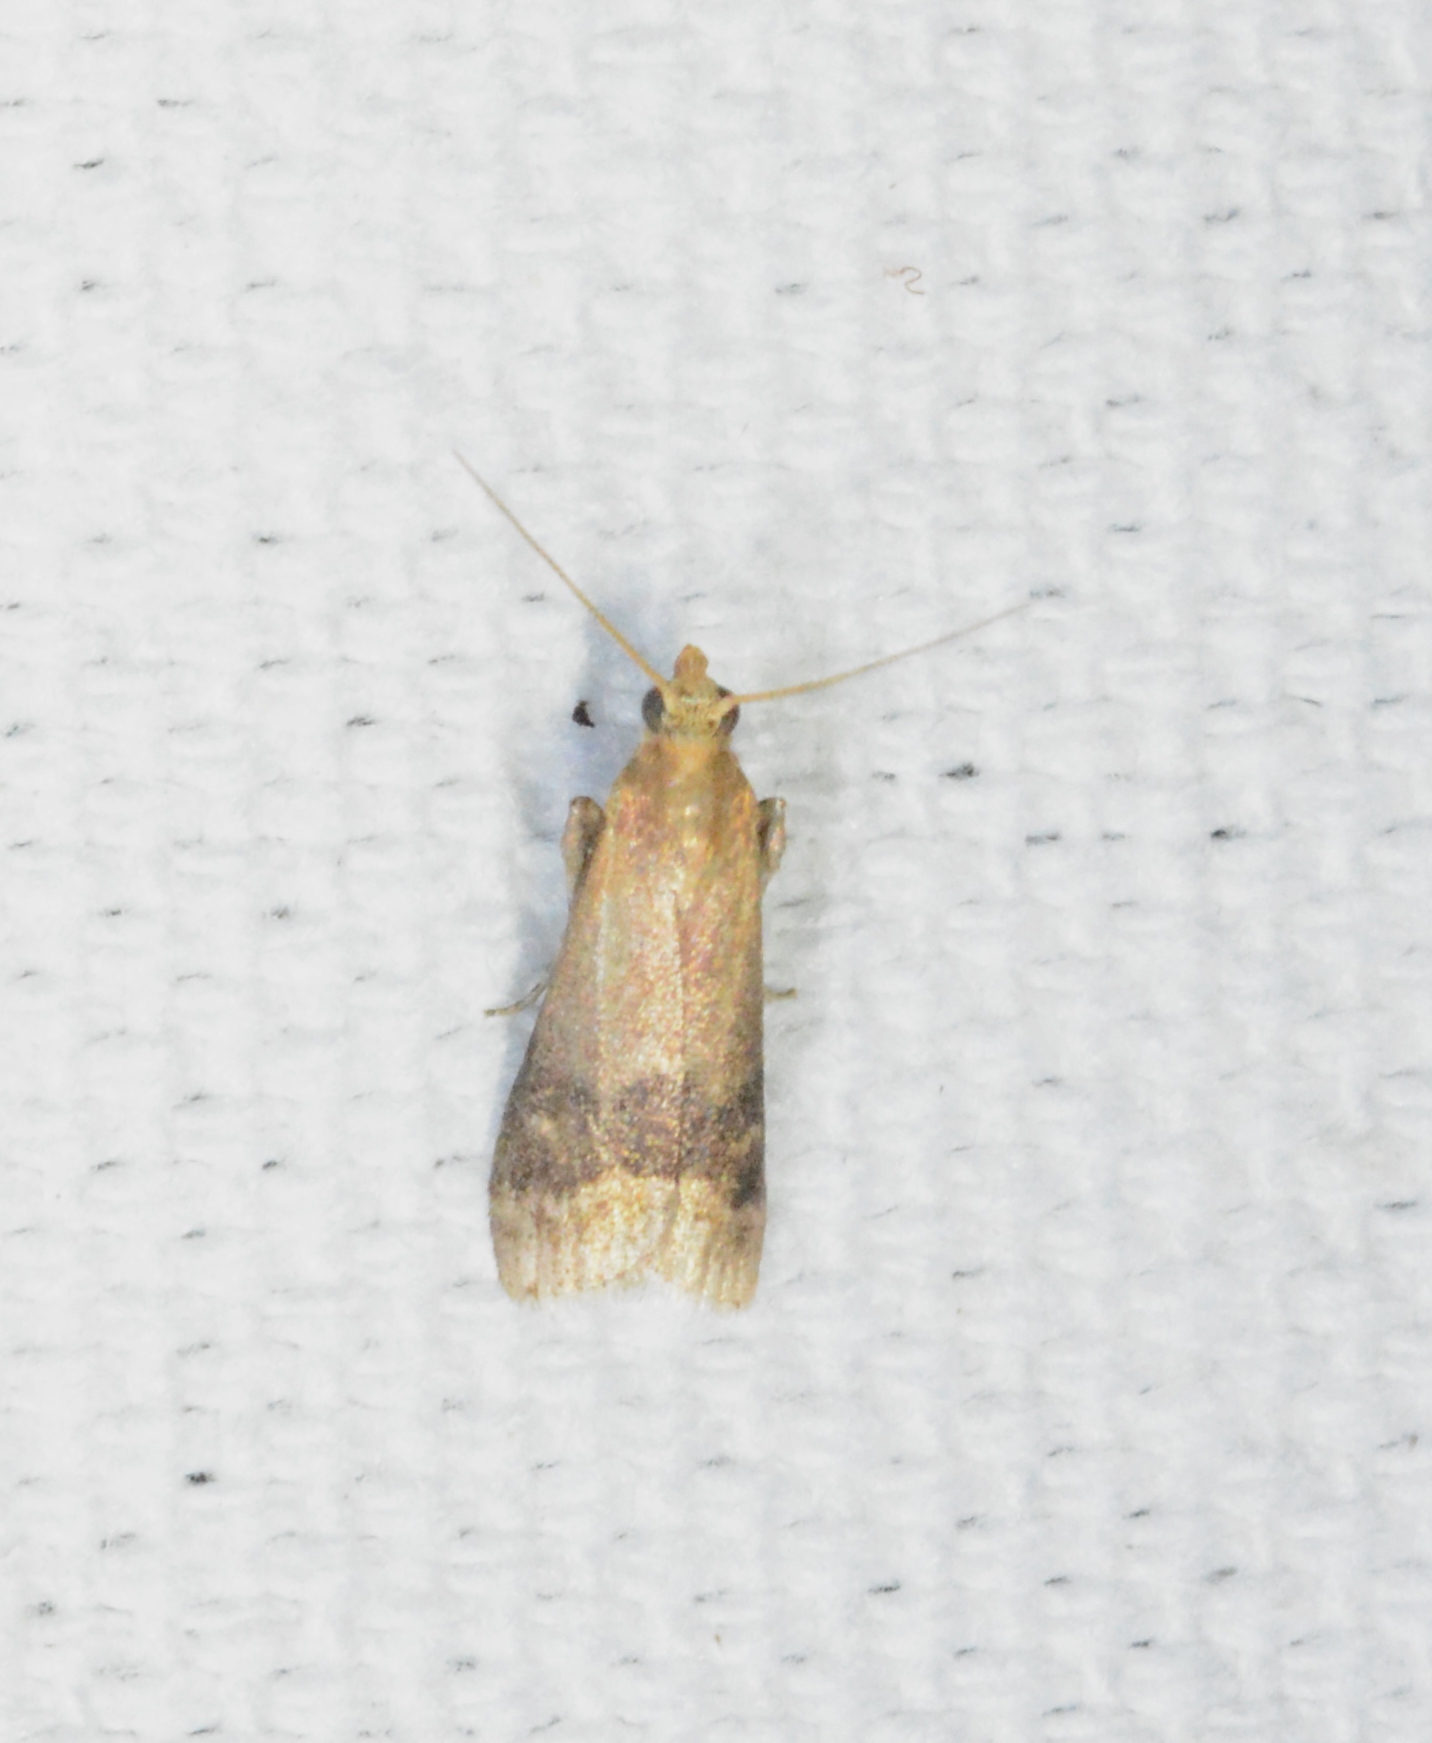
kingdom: Animalia
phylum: Arthropoda
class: Insecta
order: Lepidoptera
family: Pyralidae
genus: Eulogia
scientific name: Eulogia ochrifrontella
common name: Broad-banded eulogia moth
